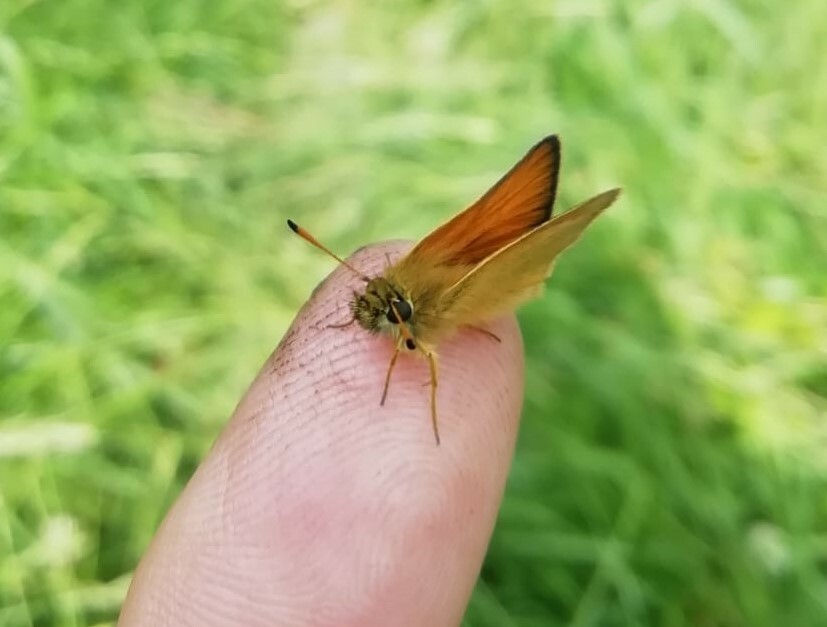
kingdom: Animalia
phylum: Arthropoda
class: Insecta
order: Lepidoptera
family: Hesperiidae
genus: Thymelicus
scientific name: Thymelicus lineola
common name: Essex skipper
